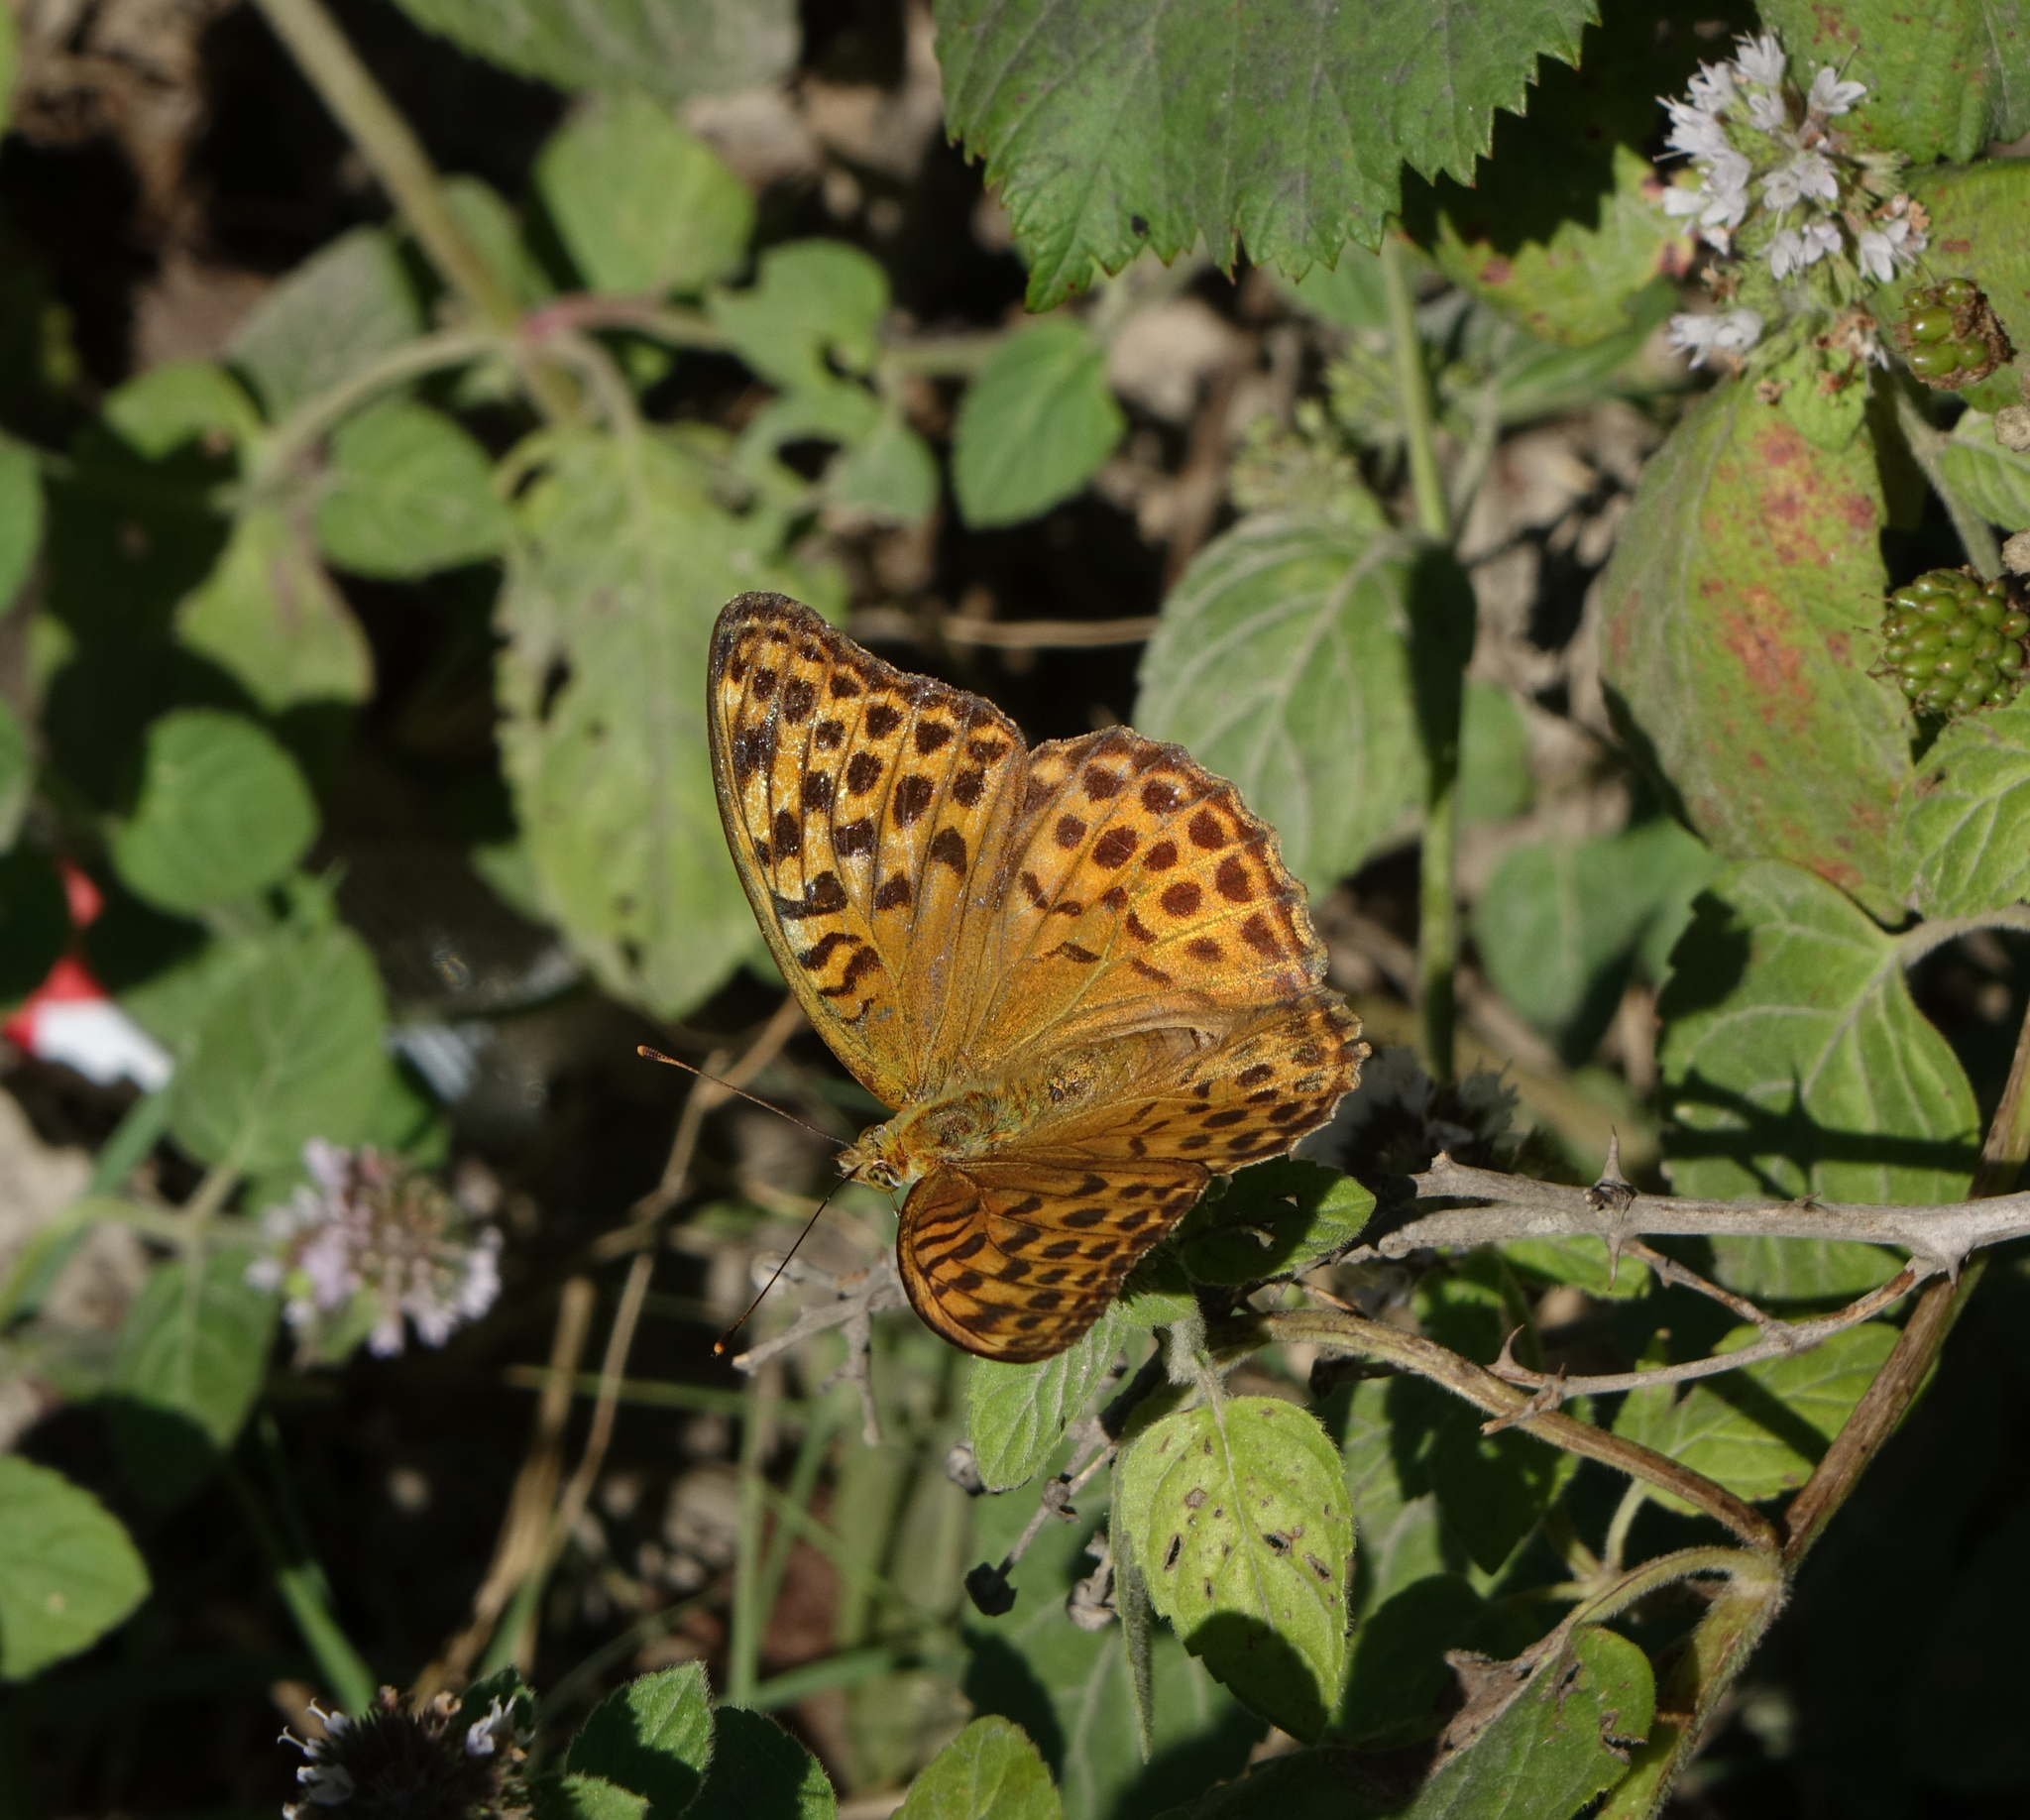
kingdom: Animalia
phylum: Arthropoda
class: Insecta
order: Lepidoptera
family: Nymphalidae
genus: Argynnis
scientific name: Argynnis paphia
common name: Silver-washed fritillary
